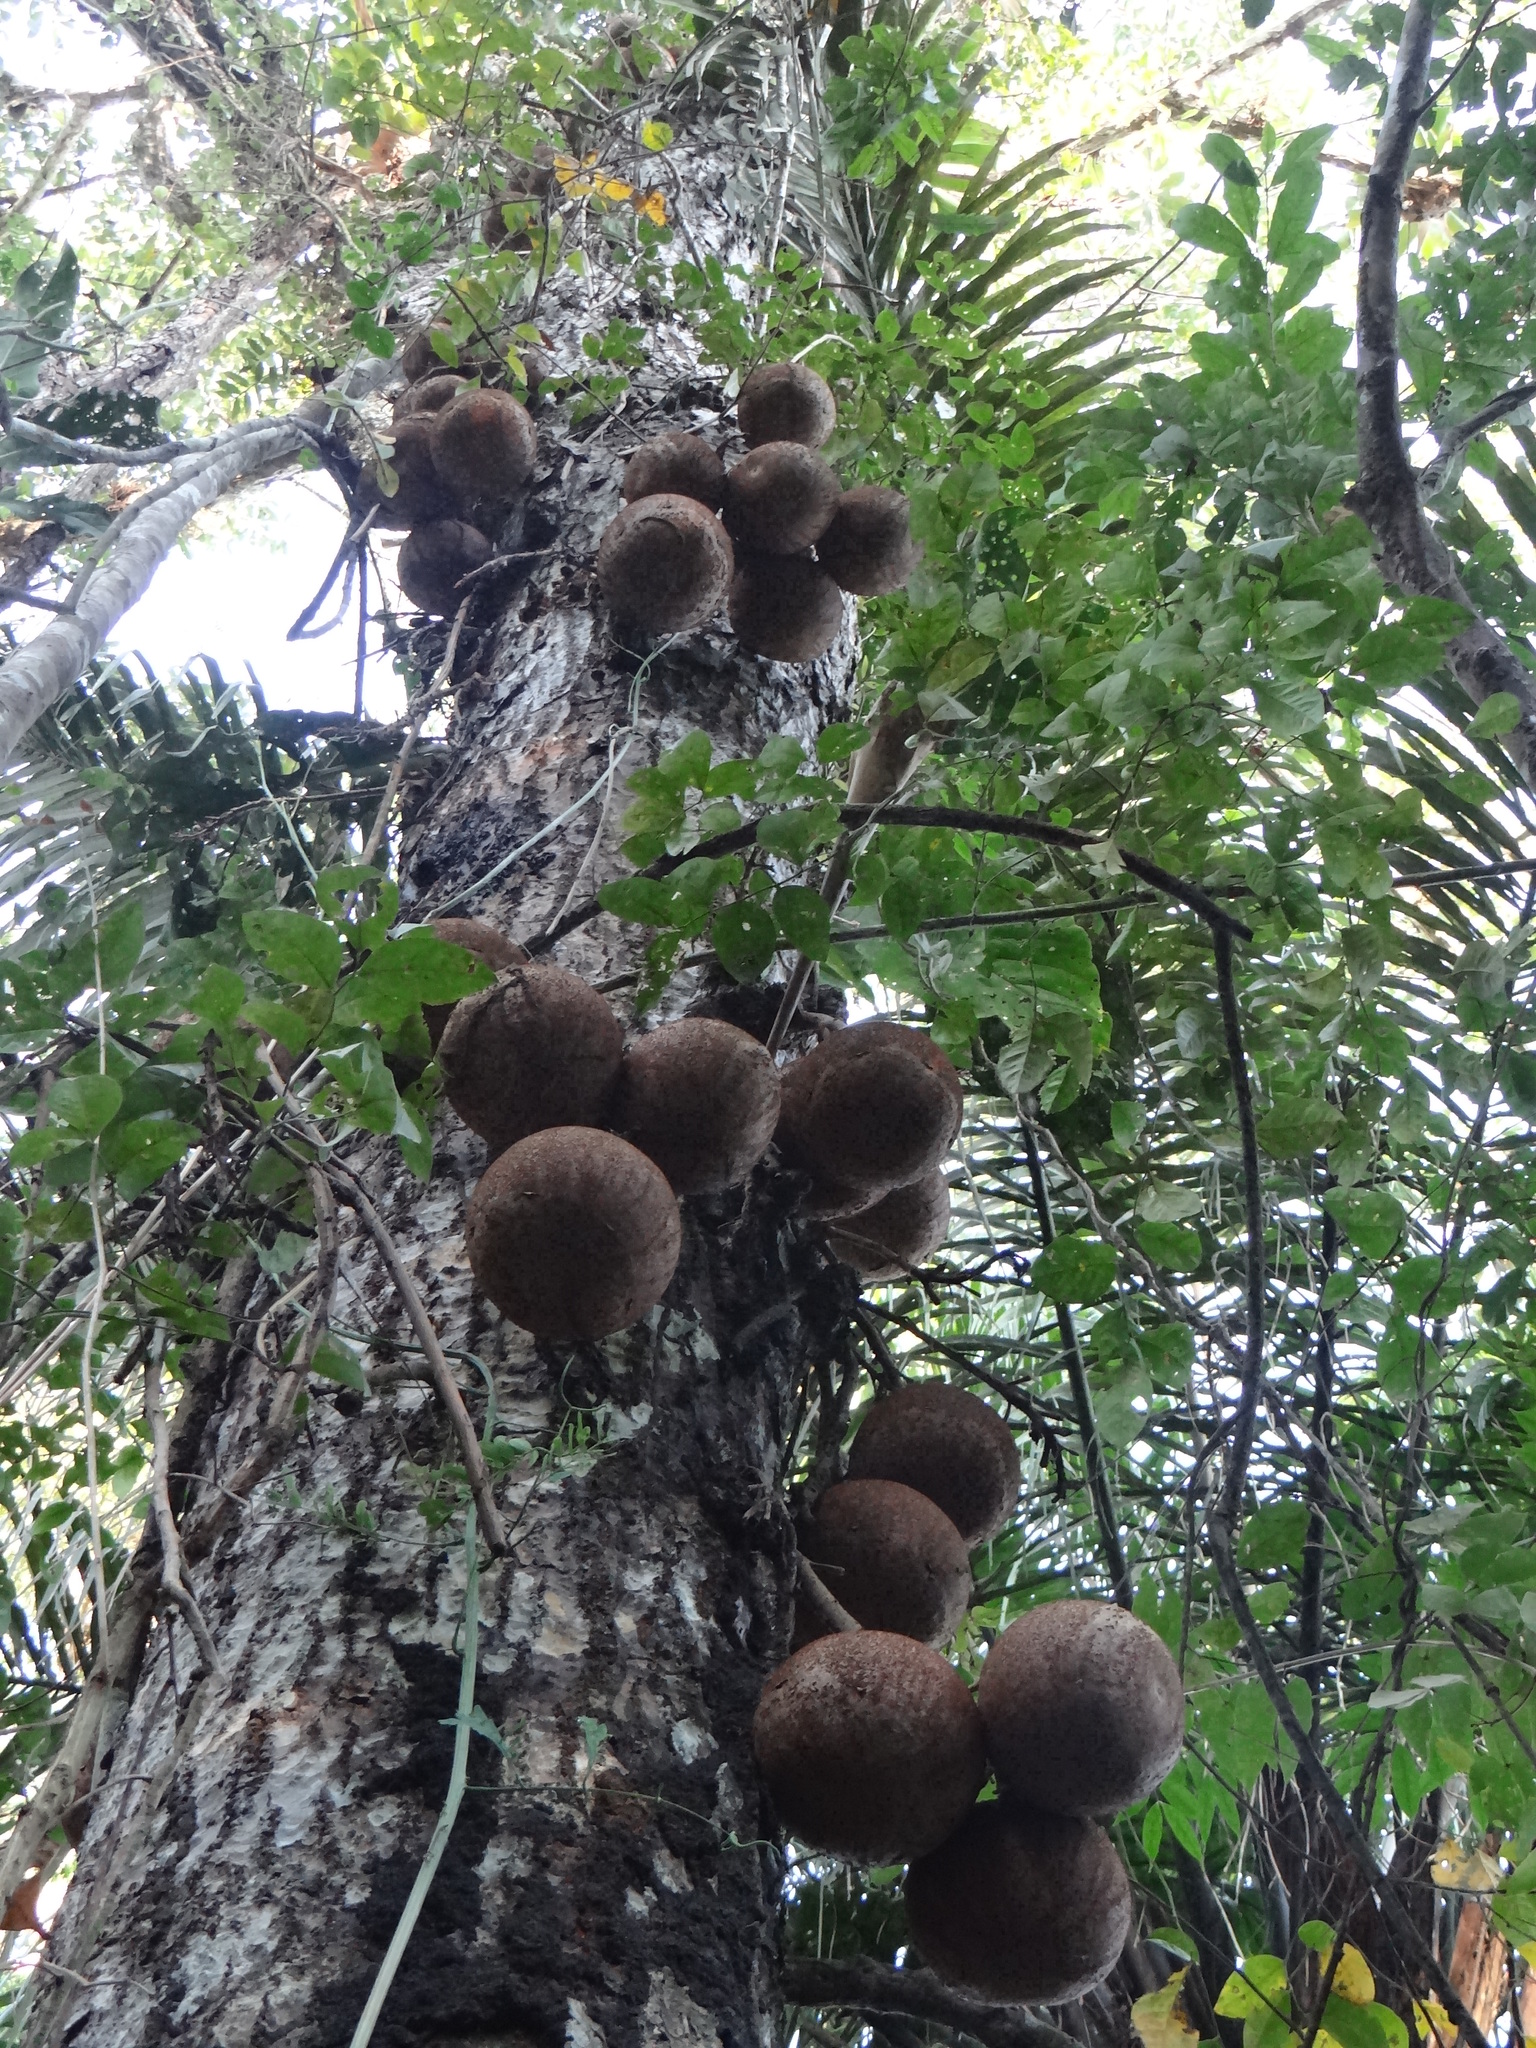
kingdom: Plantae
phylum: Tracheophyta
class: Magnoliopsida
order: Ericales
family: Lecythidaceae
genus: Couroupita
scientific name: Couroupita guianensis
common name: Cannonball tree
